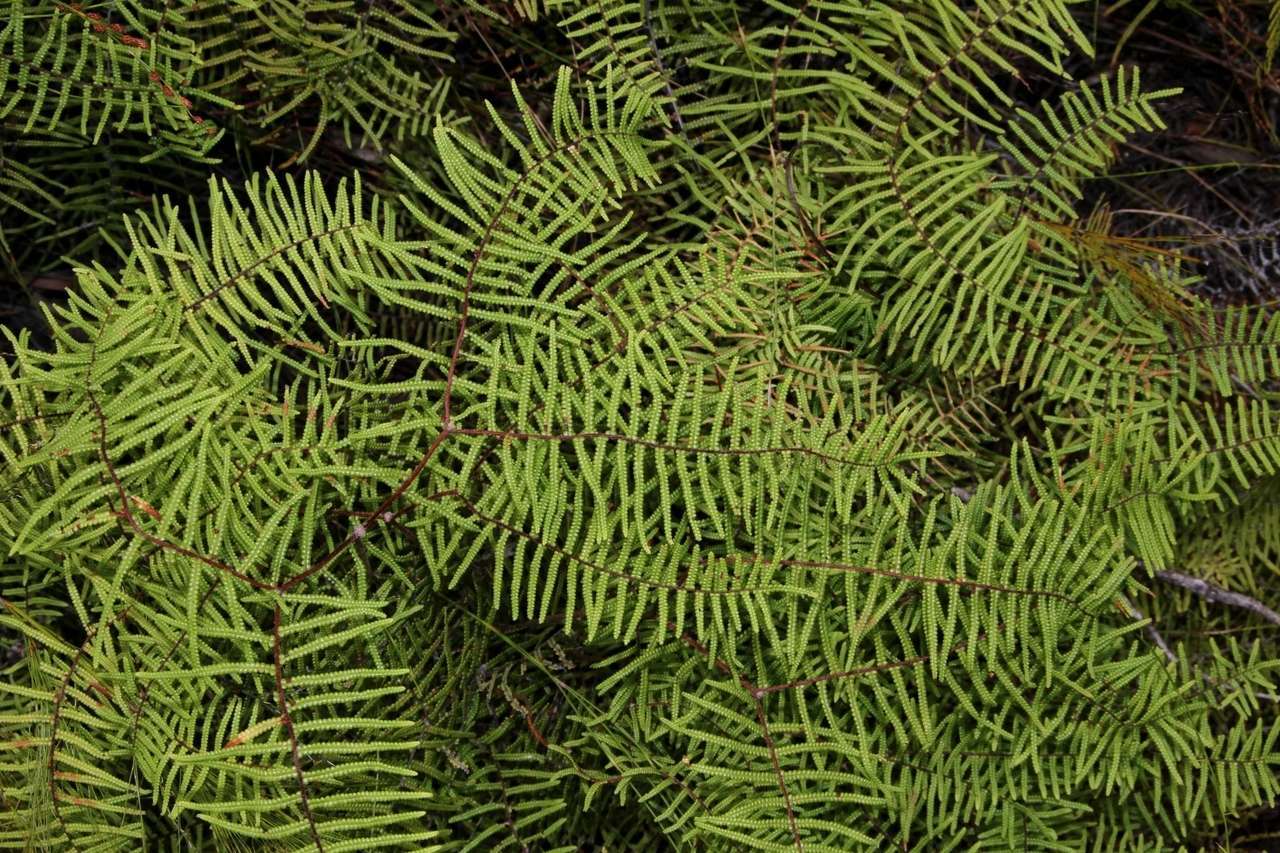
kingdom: Plantae
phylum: Tracheophyta
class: Polypodiopsida
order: Gleicheniales
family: Gleicheniaceae
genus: Gleichenia
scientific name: Gleichenia microphylla
